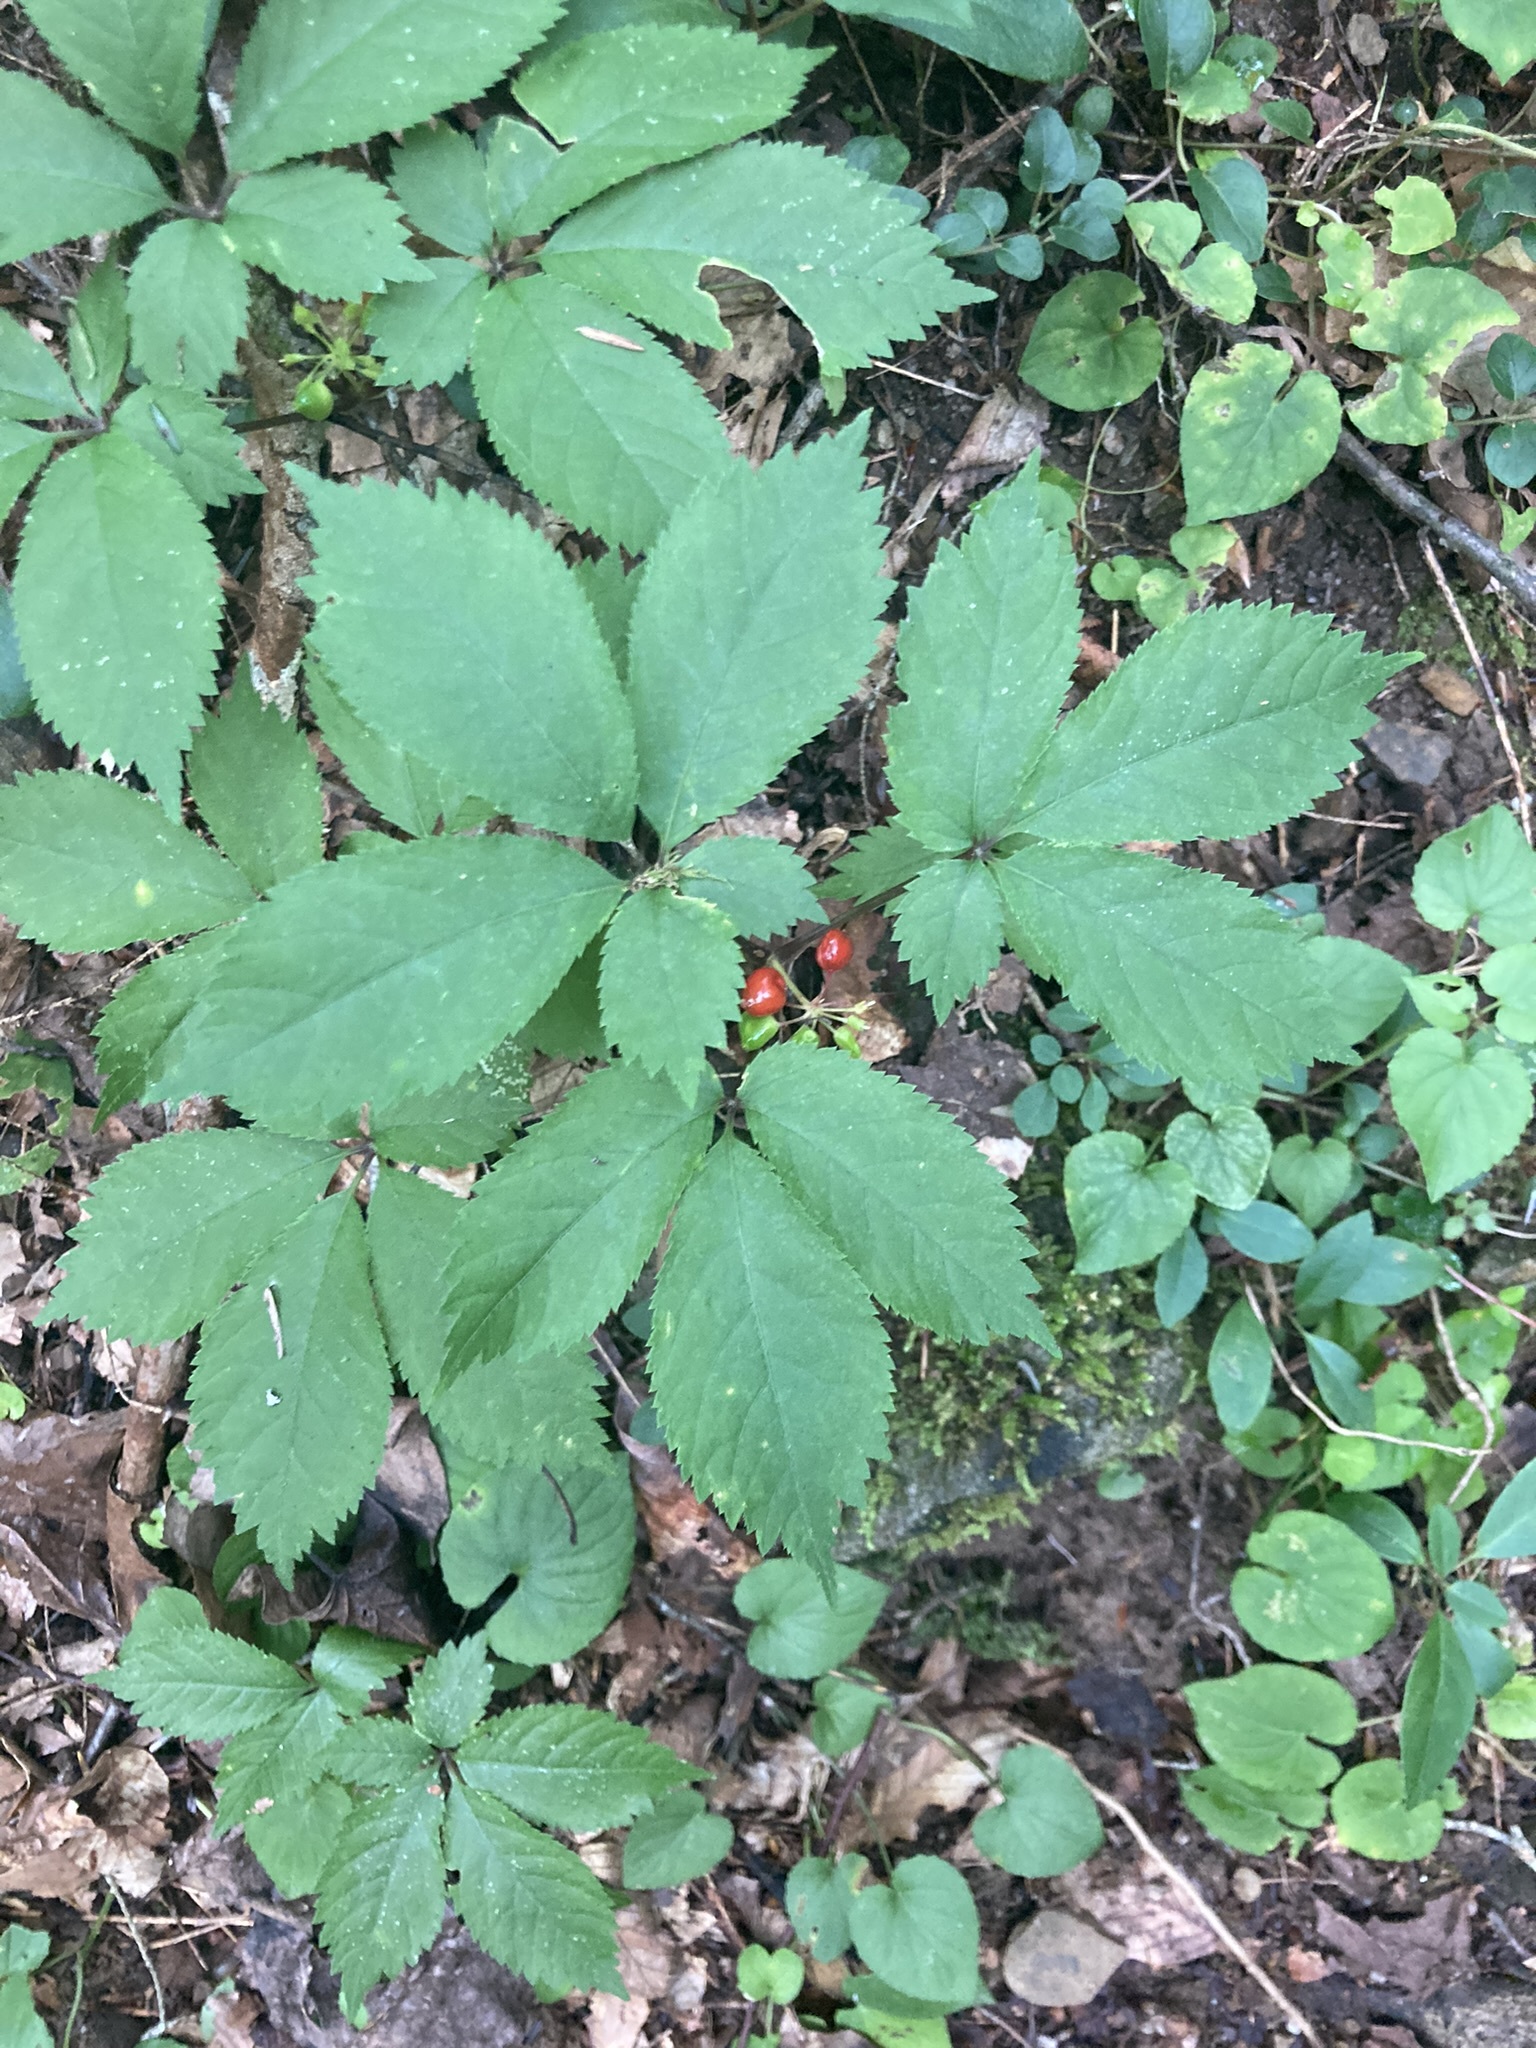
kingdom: Plantae
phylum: Tracheophyta
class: Magnoliopsida
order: Apiales
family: Araliaceae
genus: Panax
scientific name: Panax quinquefolius
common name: American ginseng
